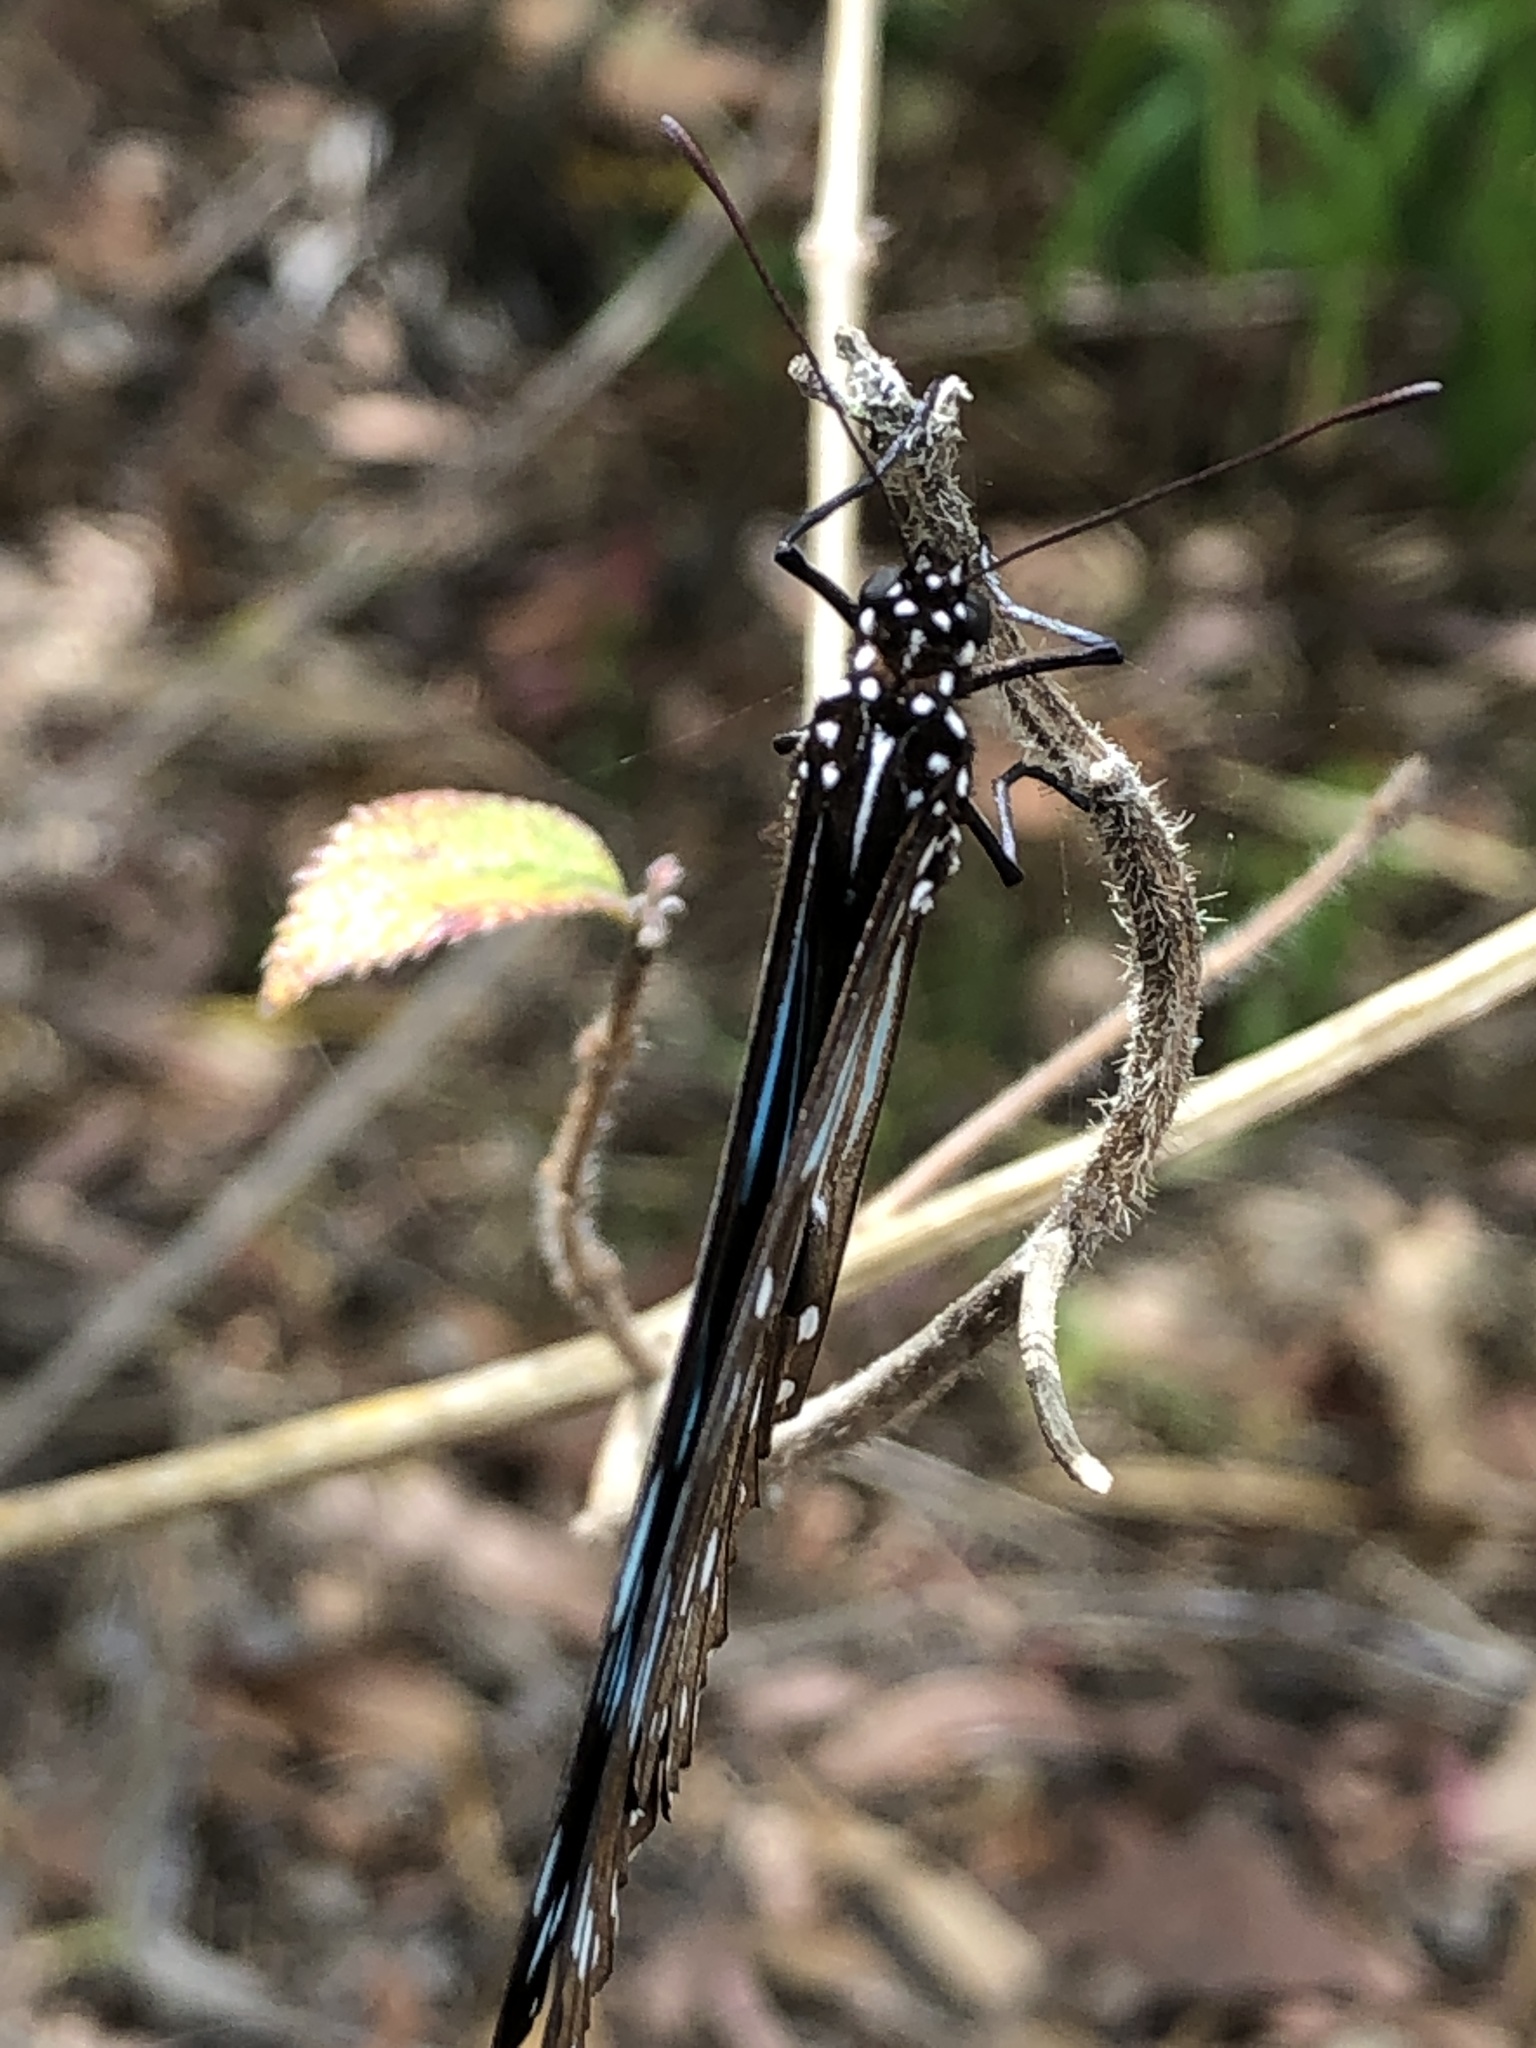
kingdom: Animalia
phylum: Arthropoda
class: Insecta
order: Lepidoptera
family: Nymphalidae
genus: Tirumala
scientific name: Tirumala hamata
